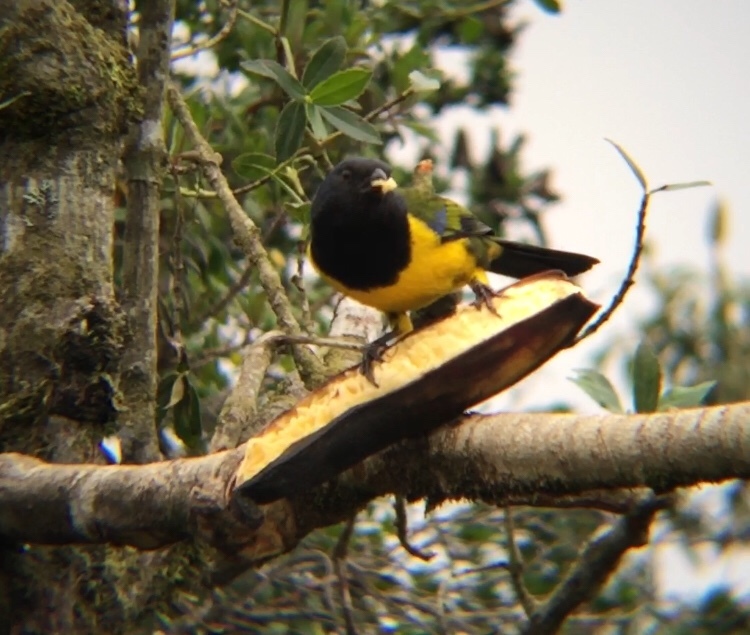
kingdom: Animalia
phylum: Chordata
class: Aves
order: Passeriformes
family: Thraupidae
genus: Cnemathraupis
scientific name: Cnemathraupis eximia
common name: Black-chested mountain-tanager
